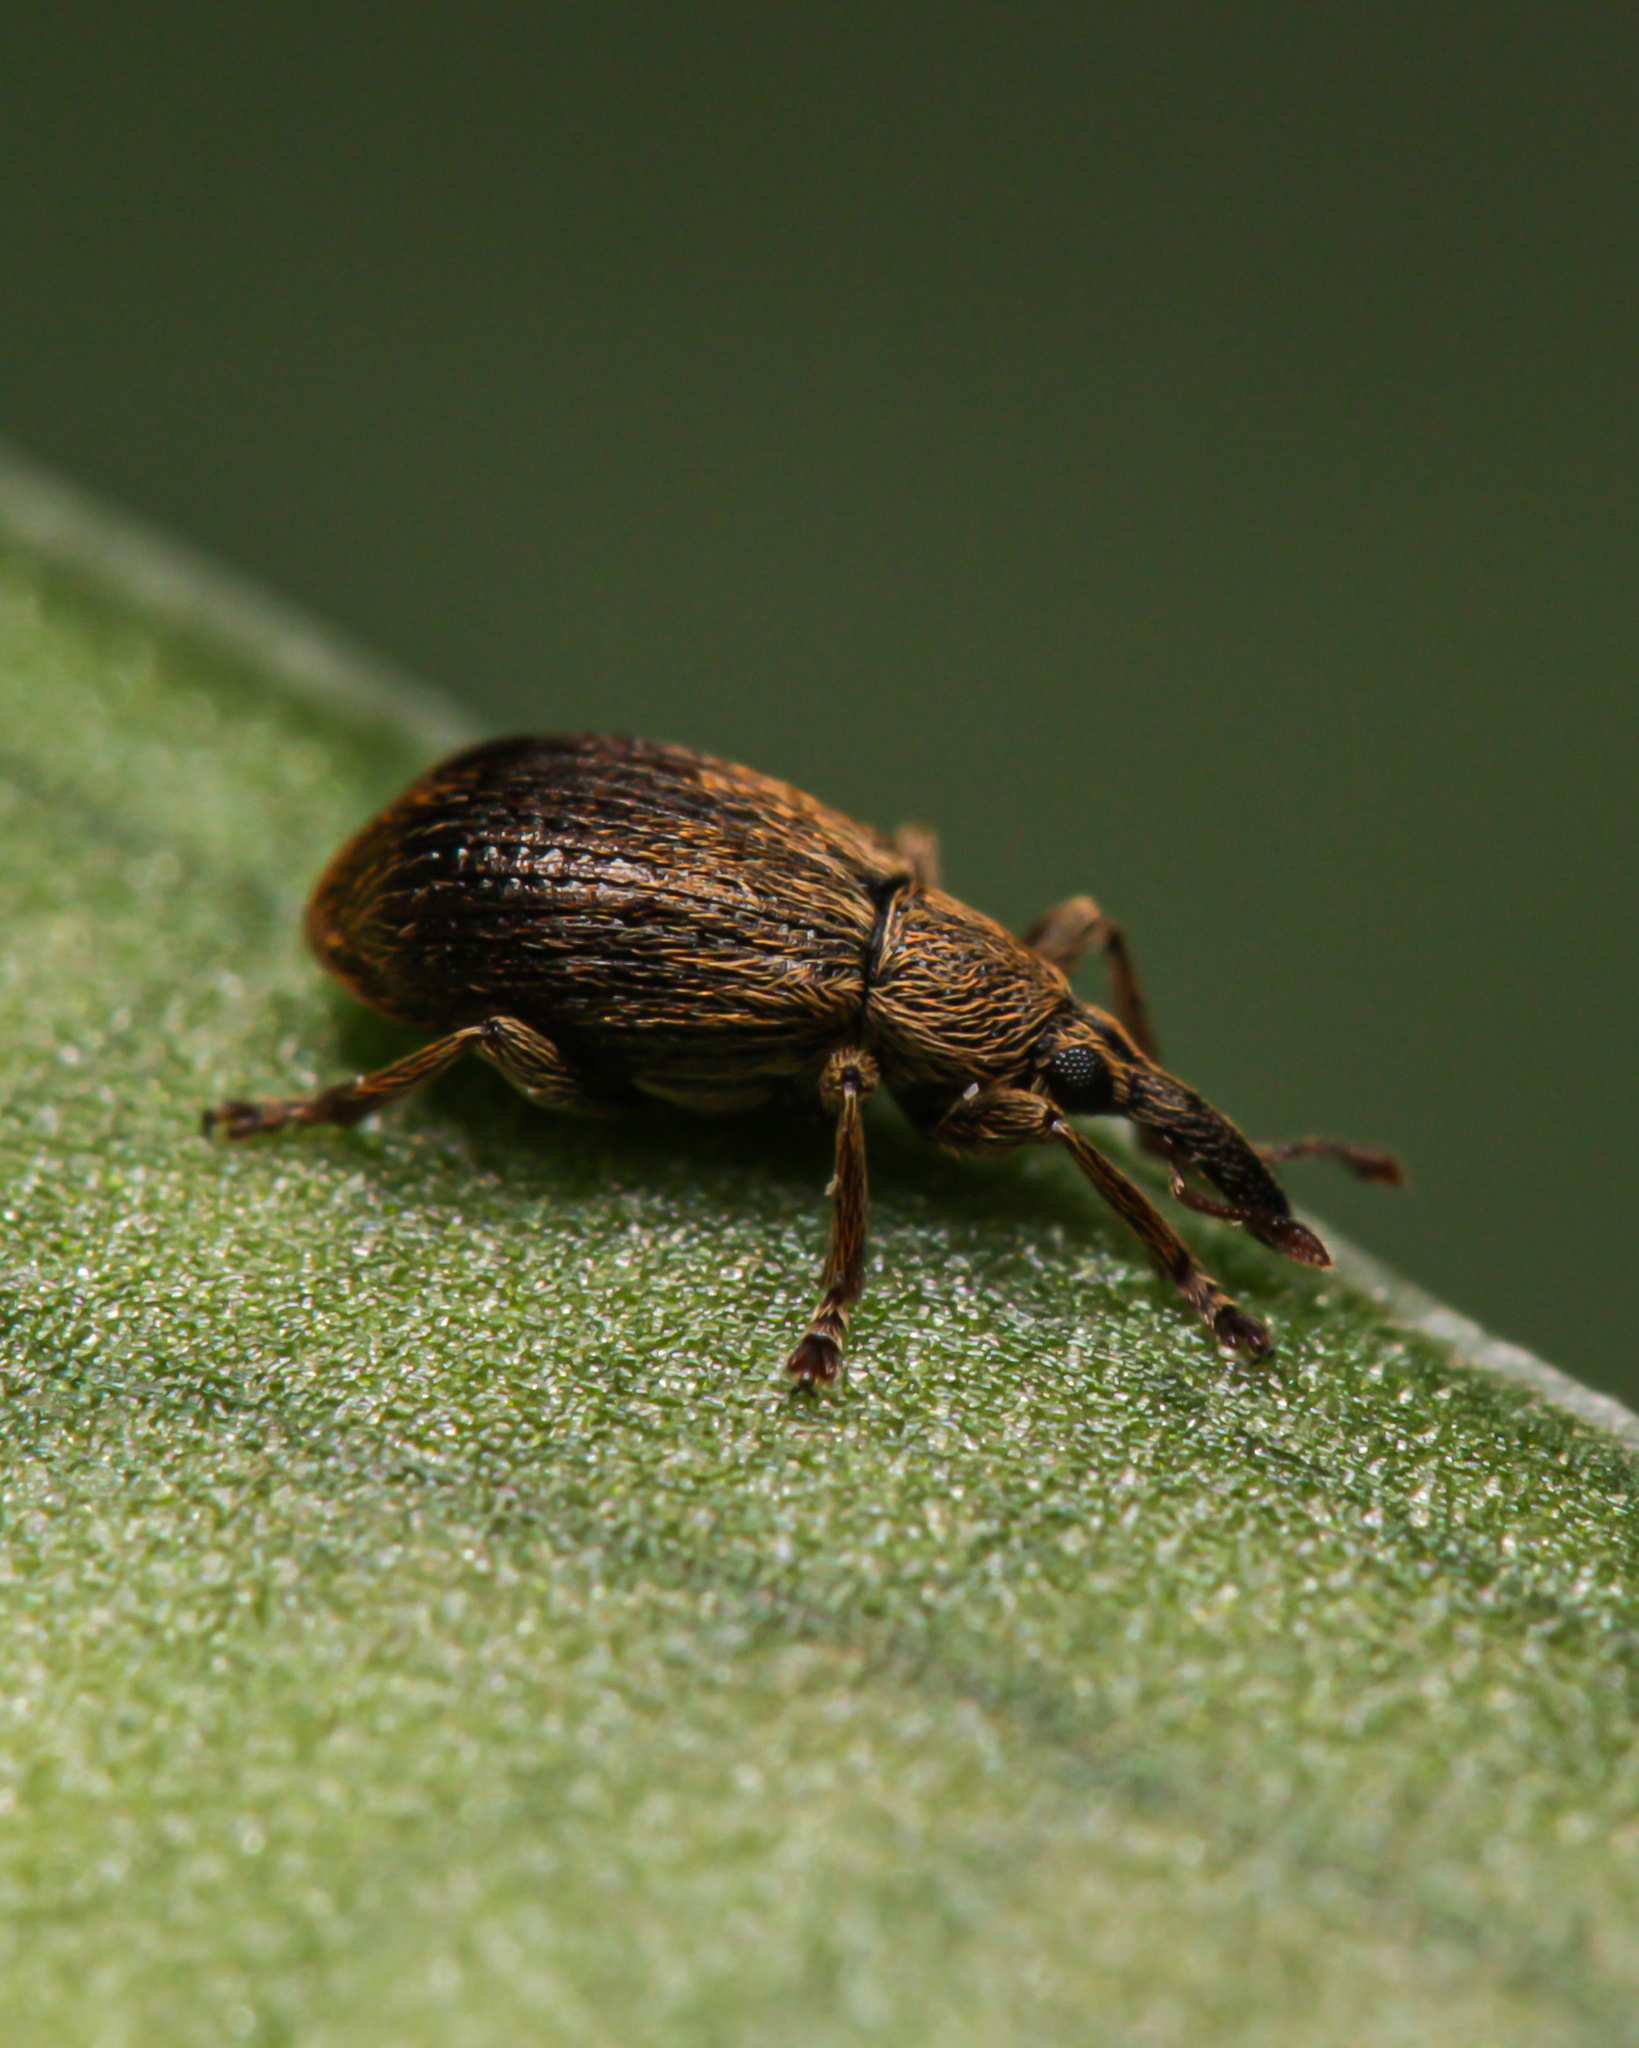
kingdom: Animalia
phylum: Arthropoda
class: Insecta
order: Coleoptera
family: Apionidae
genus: Trichopterapion
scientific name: Trichopterapion holosericeum
